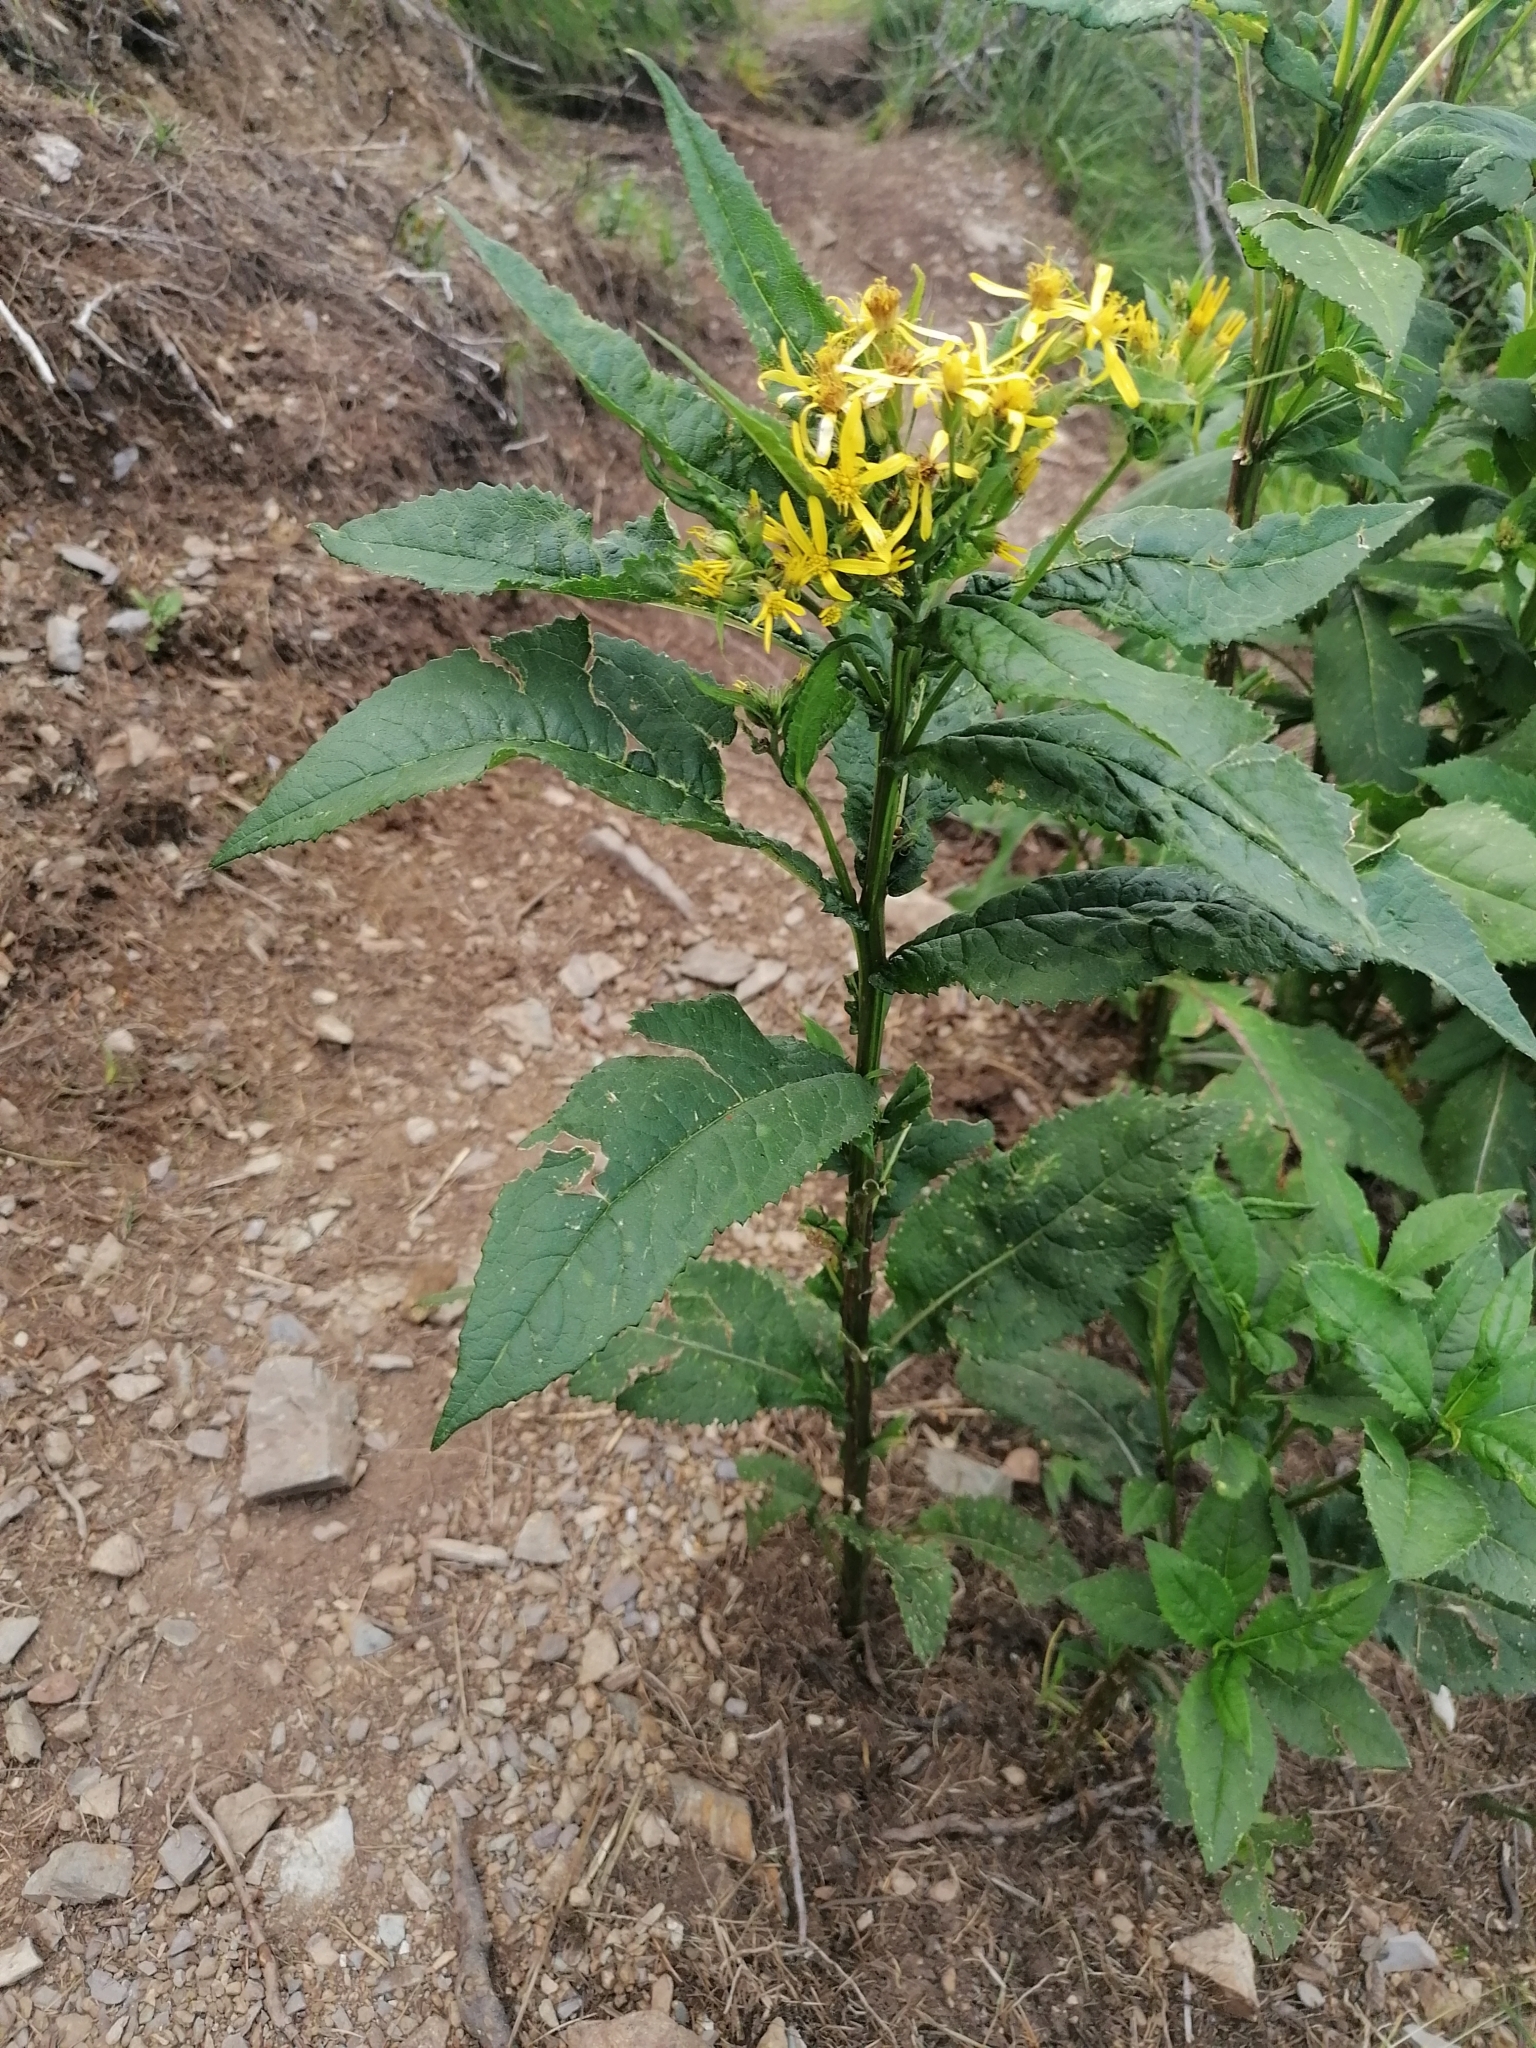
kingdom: Plantae
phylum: Tracheophyta
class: Magnoliopsida
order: Asterales
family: Asteraceae
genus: Senecio
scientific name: Senecio hercynicus
